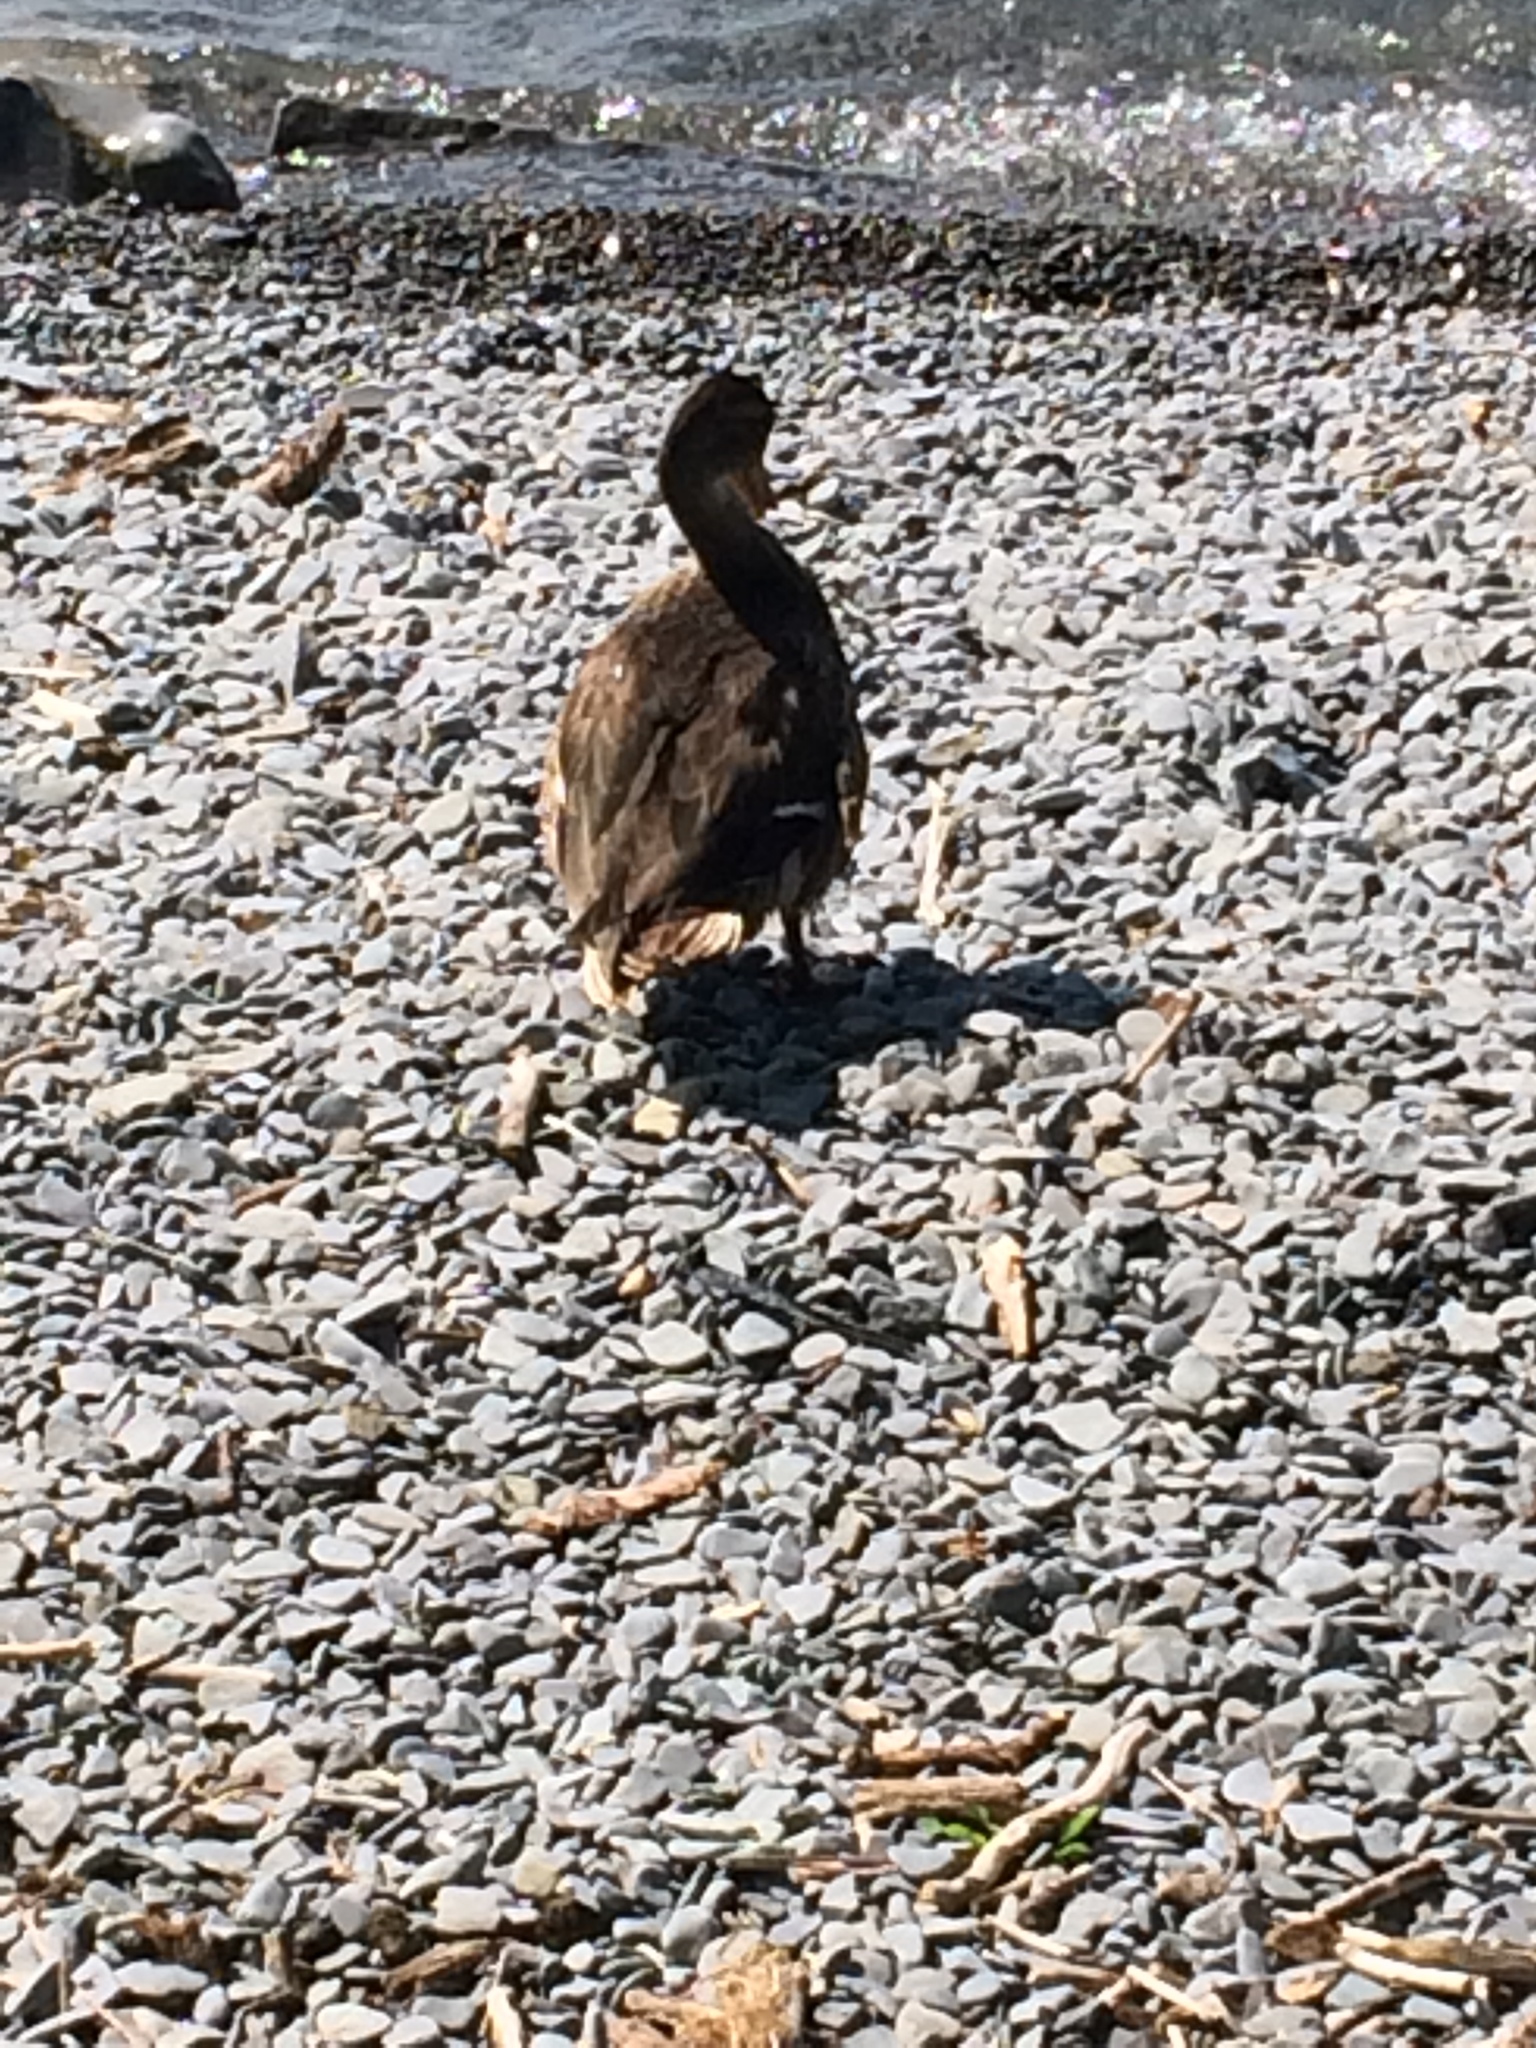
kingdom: Animalia
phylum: Chordata
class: Aves
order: Anseriformes
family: Anatidae
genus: Anas
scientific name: Anas platyrhynchos
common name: Mallard
